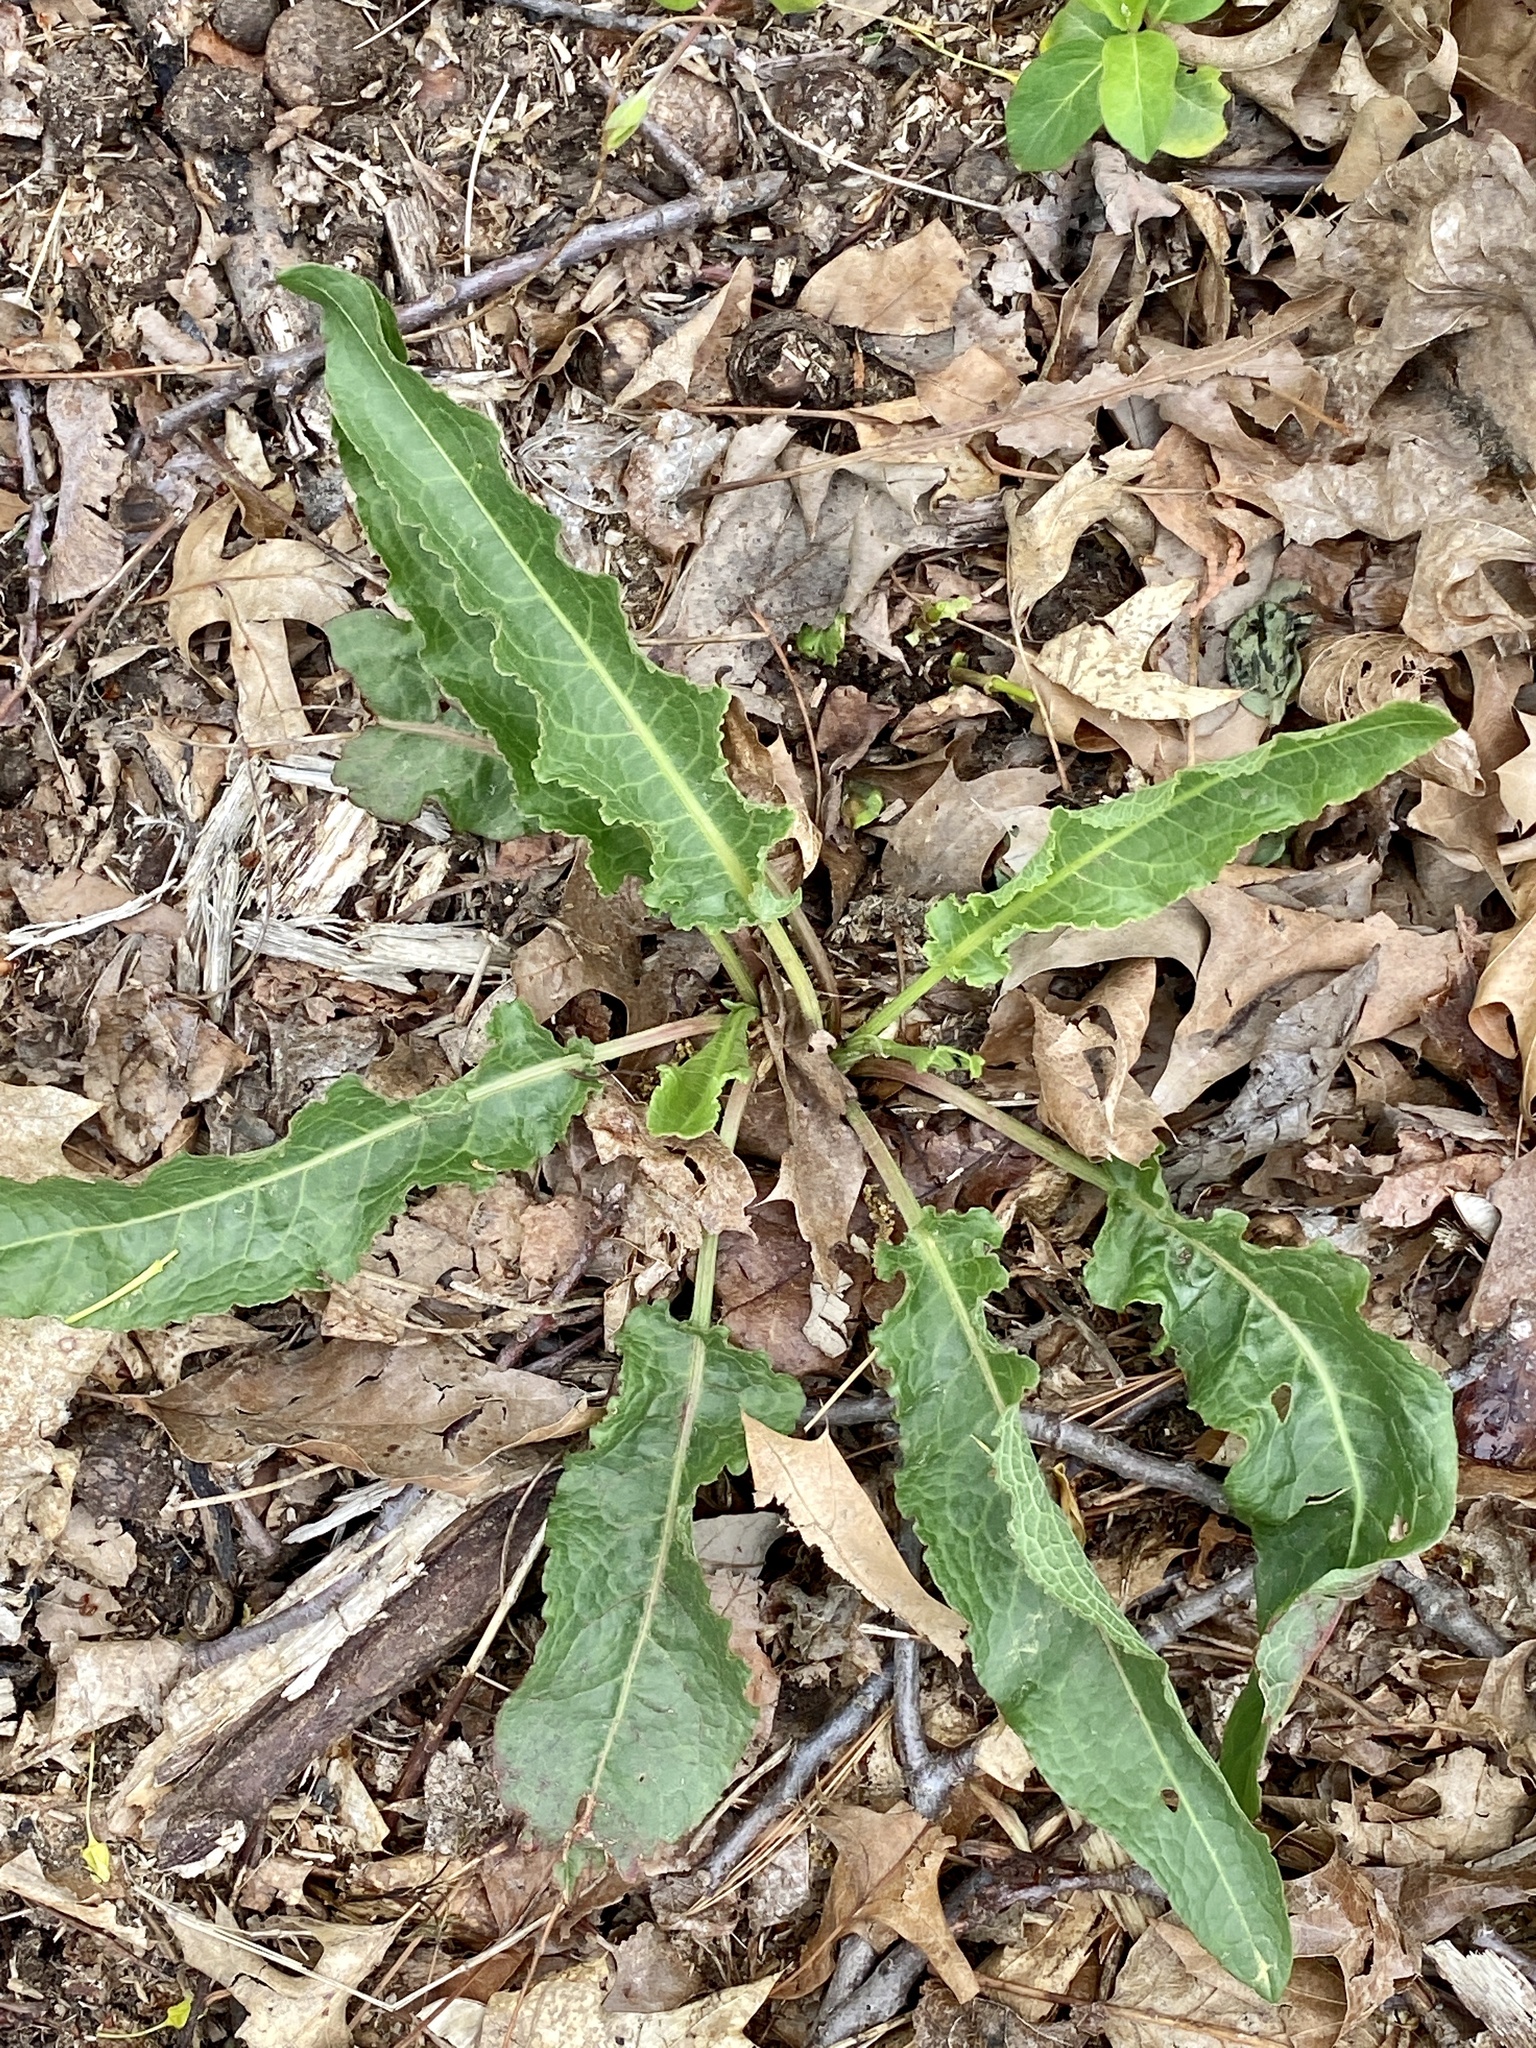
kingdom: Plantae
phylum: Tracheophyta
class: Magnoliopsida
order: Caryophyllales
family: Polygonaceae
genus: Rumex
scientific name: Rumex crispus
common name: Curled dock
